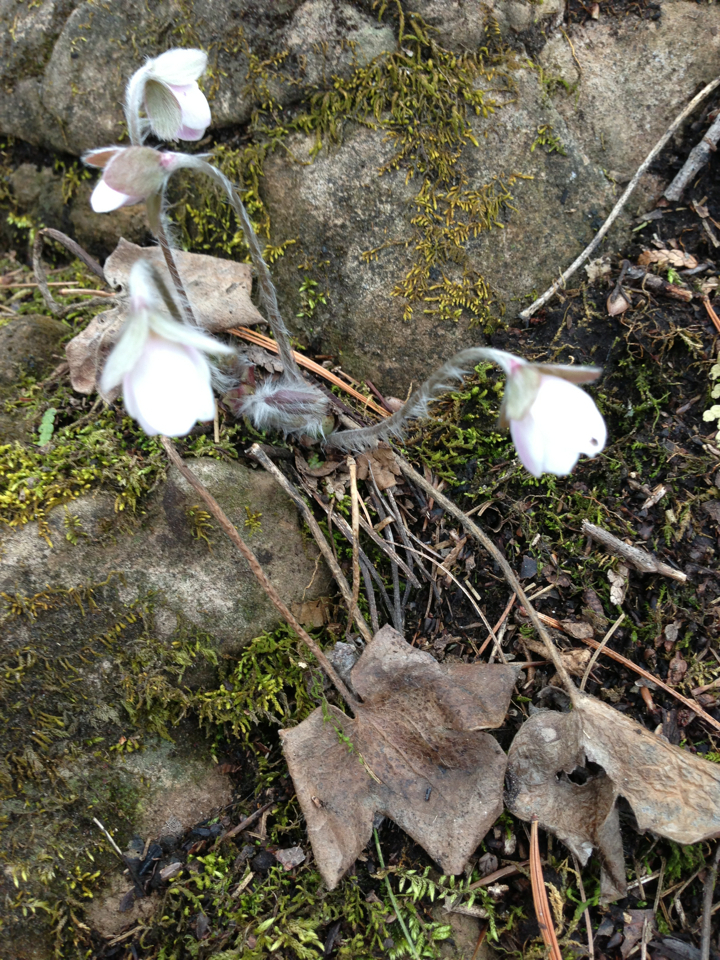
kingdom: Plantae
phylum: Tracheophyta
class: Magnoliopsida
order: Ranunculales
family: Ranunculaceae
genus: Hepatica
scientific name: Hepatica acutiloba
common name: Sharp-lobed hepatica
